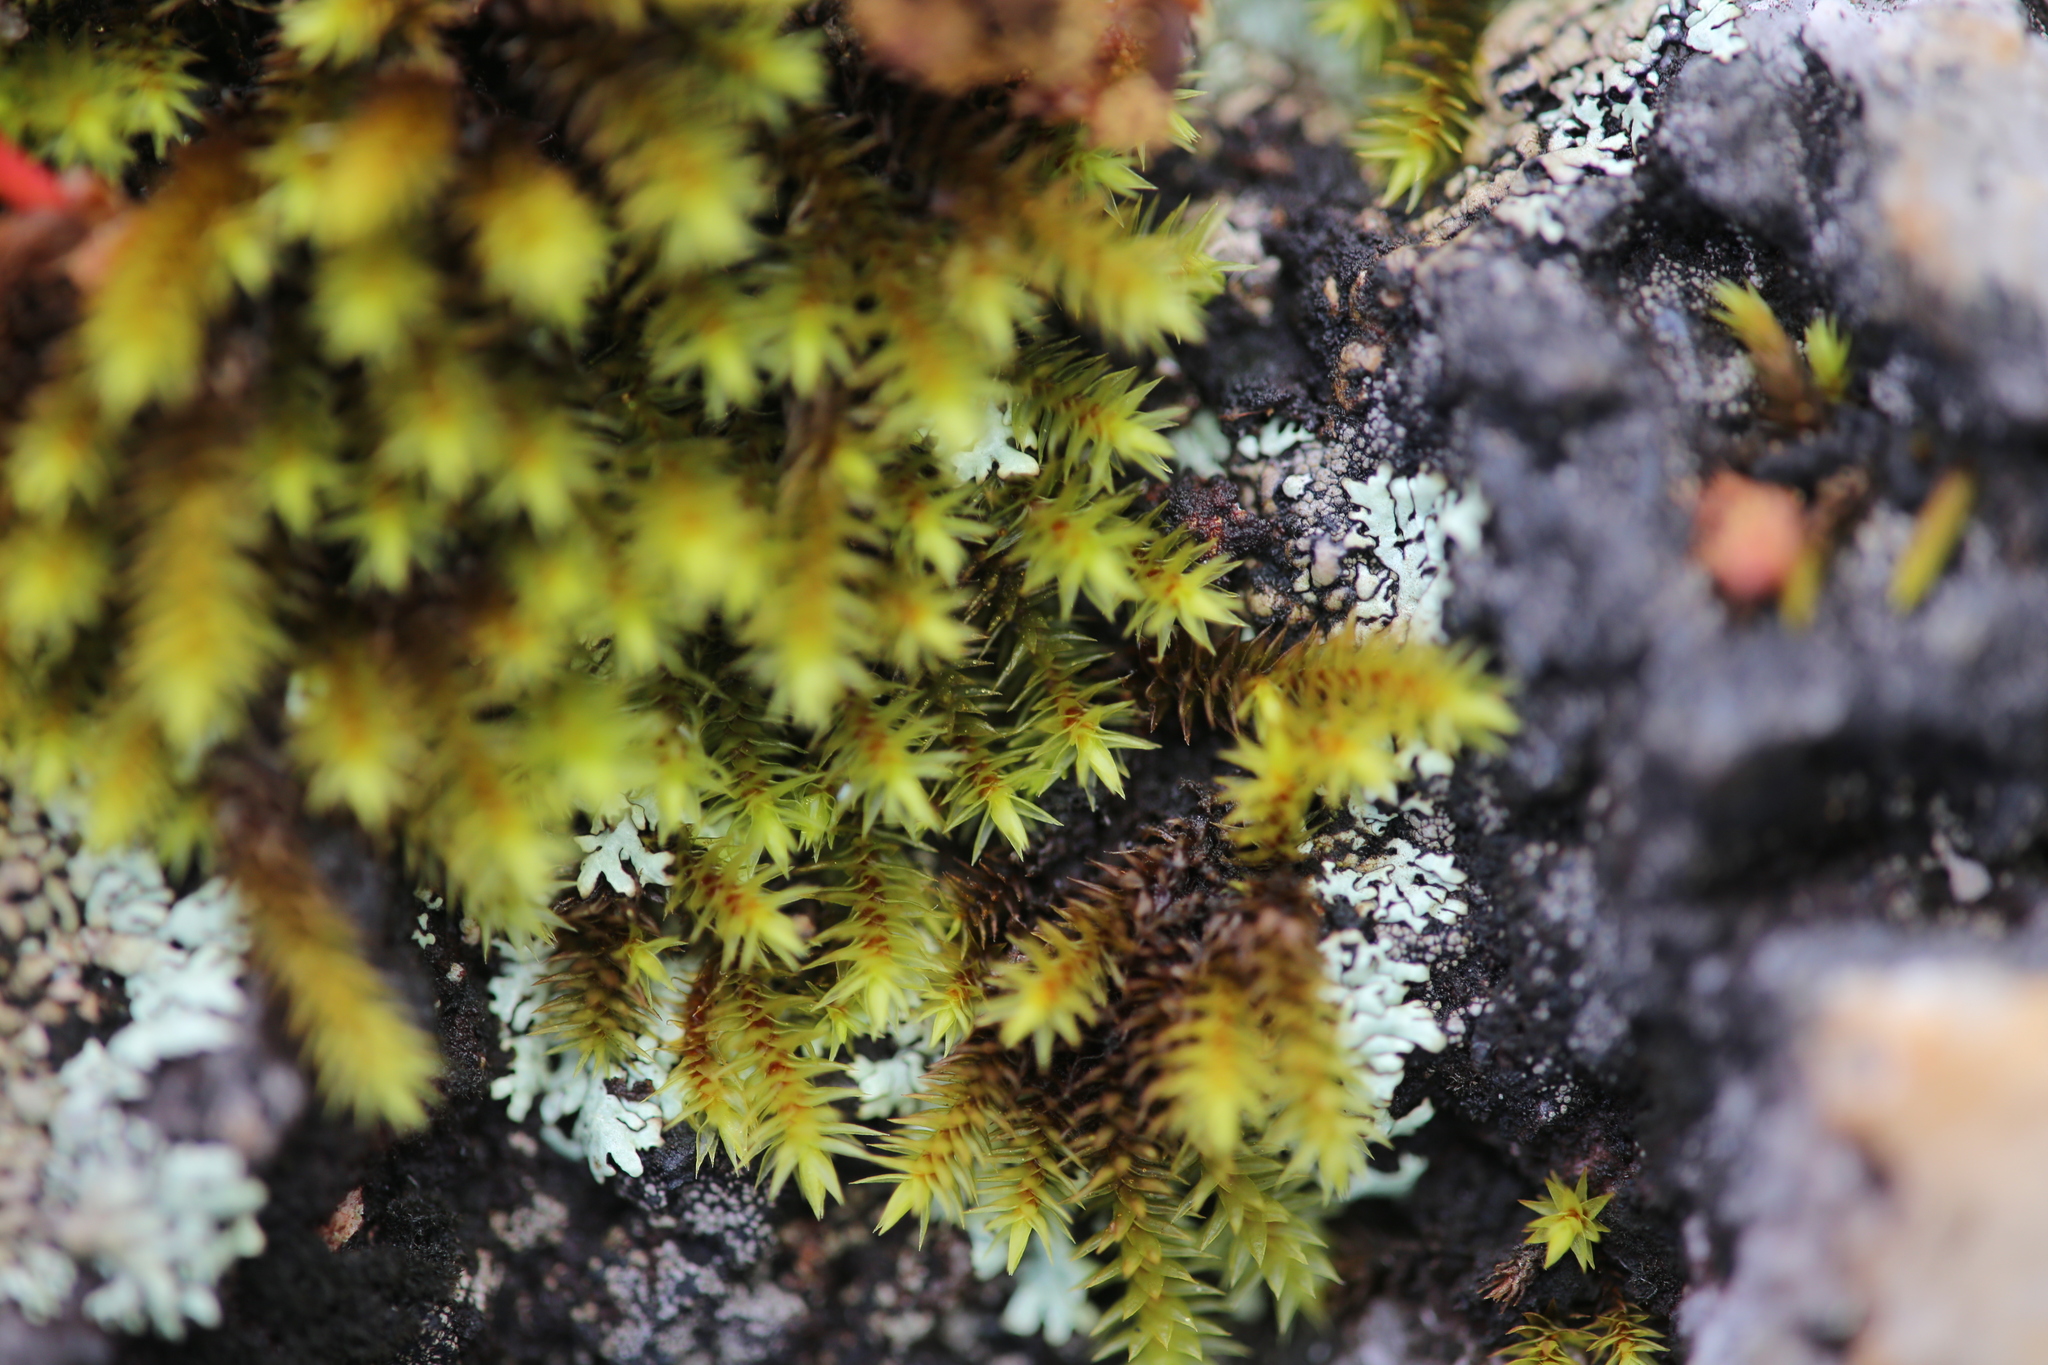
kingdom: Plantae
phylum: Bryophyta
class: Bryopsida
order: Hedwigiales
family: Hedwigiaceae
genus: Hedwigidium
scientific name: Hedwigidium imberbe
